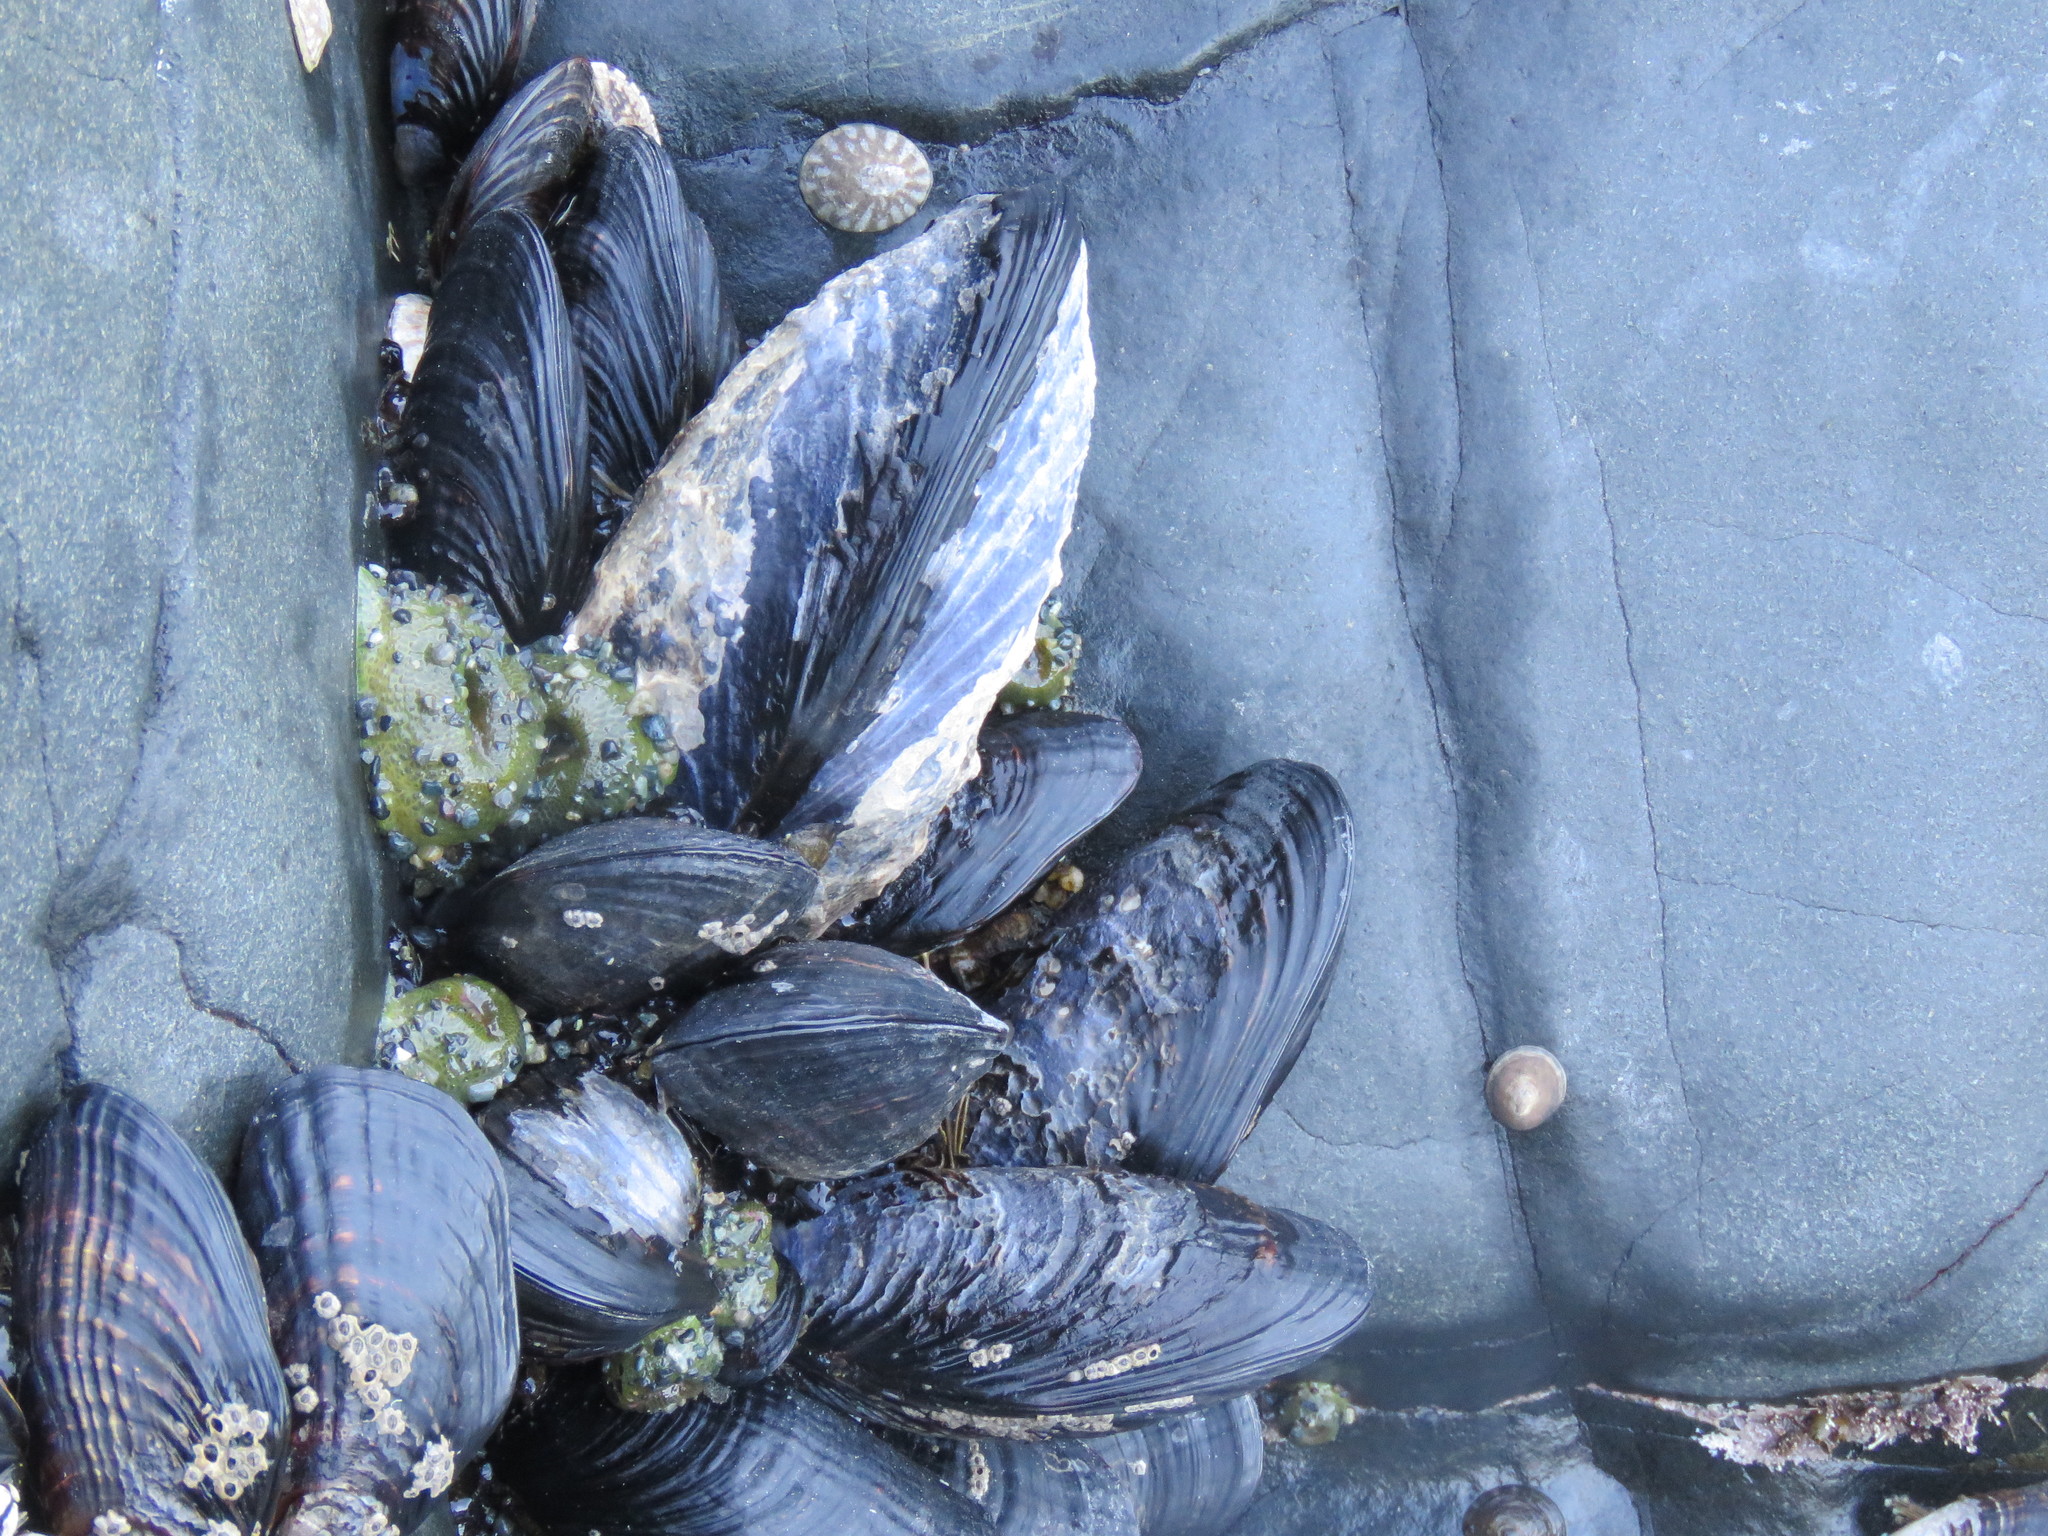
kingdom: Animalia
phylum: Mollusca
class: Bivalvia
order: Mytilida
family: Mytilidae
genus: Mytilus
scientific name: Mytilus californianus
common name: California mussel
